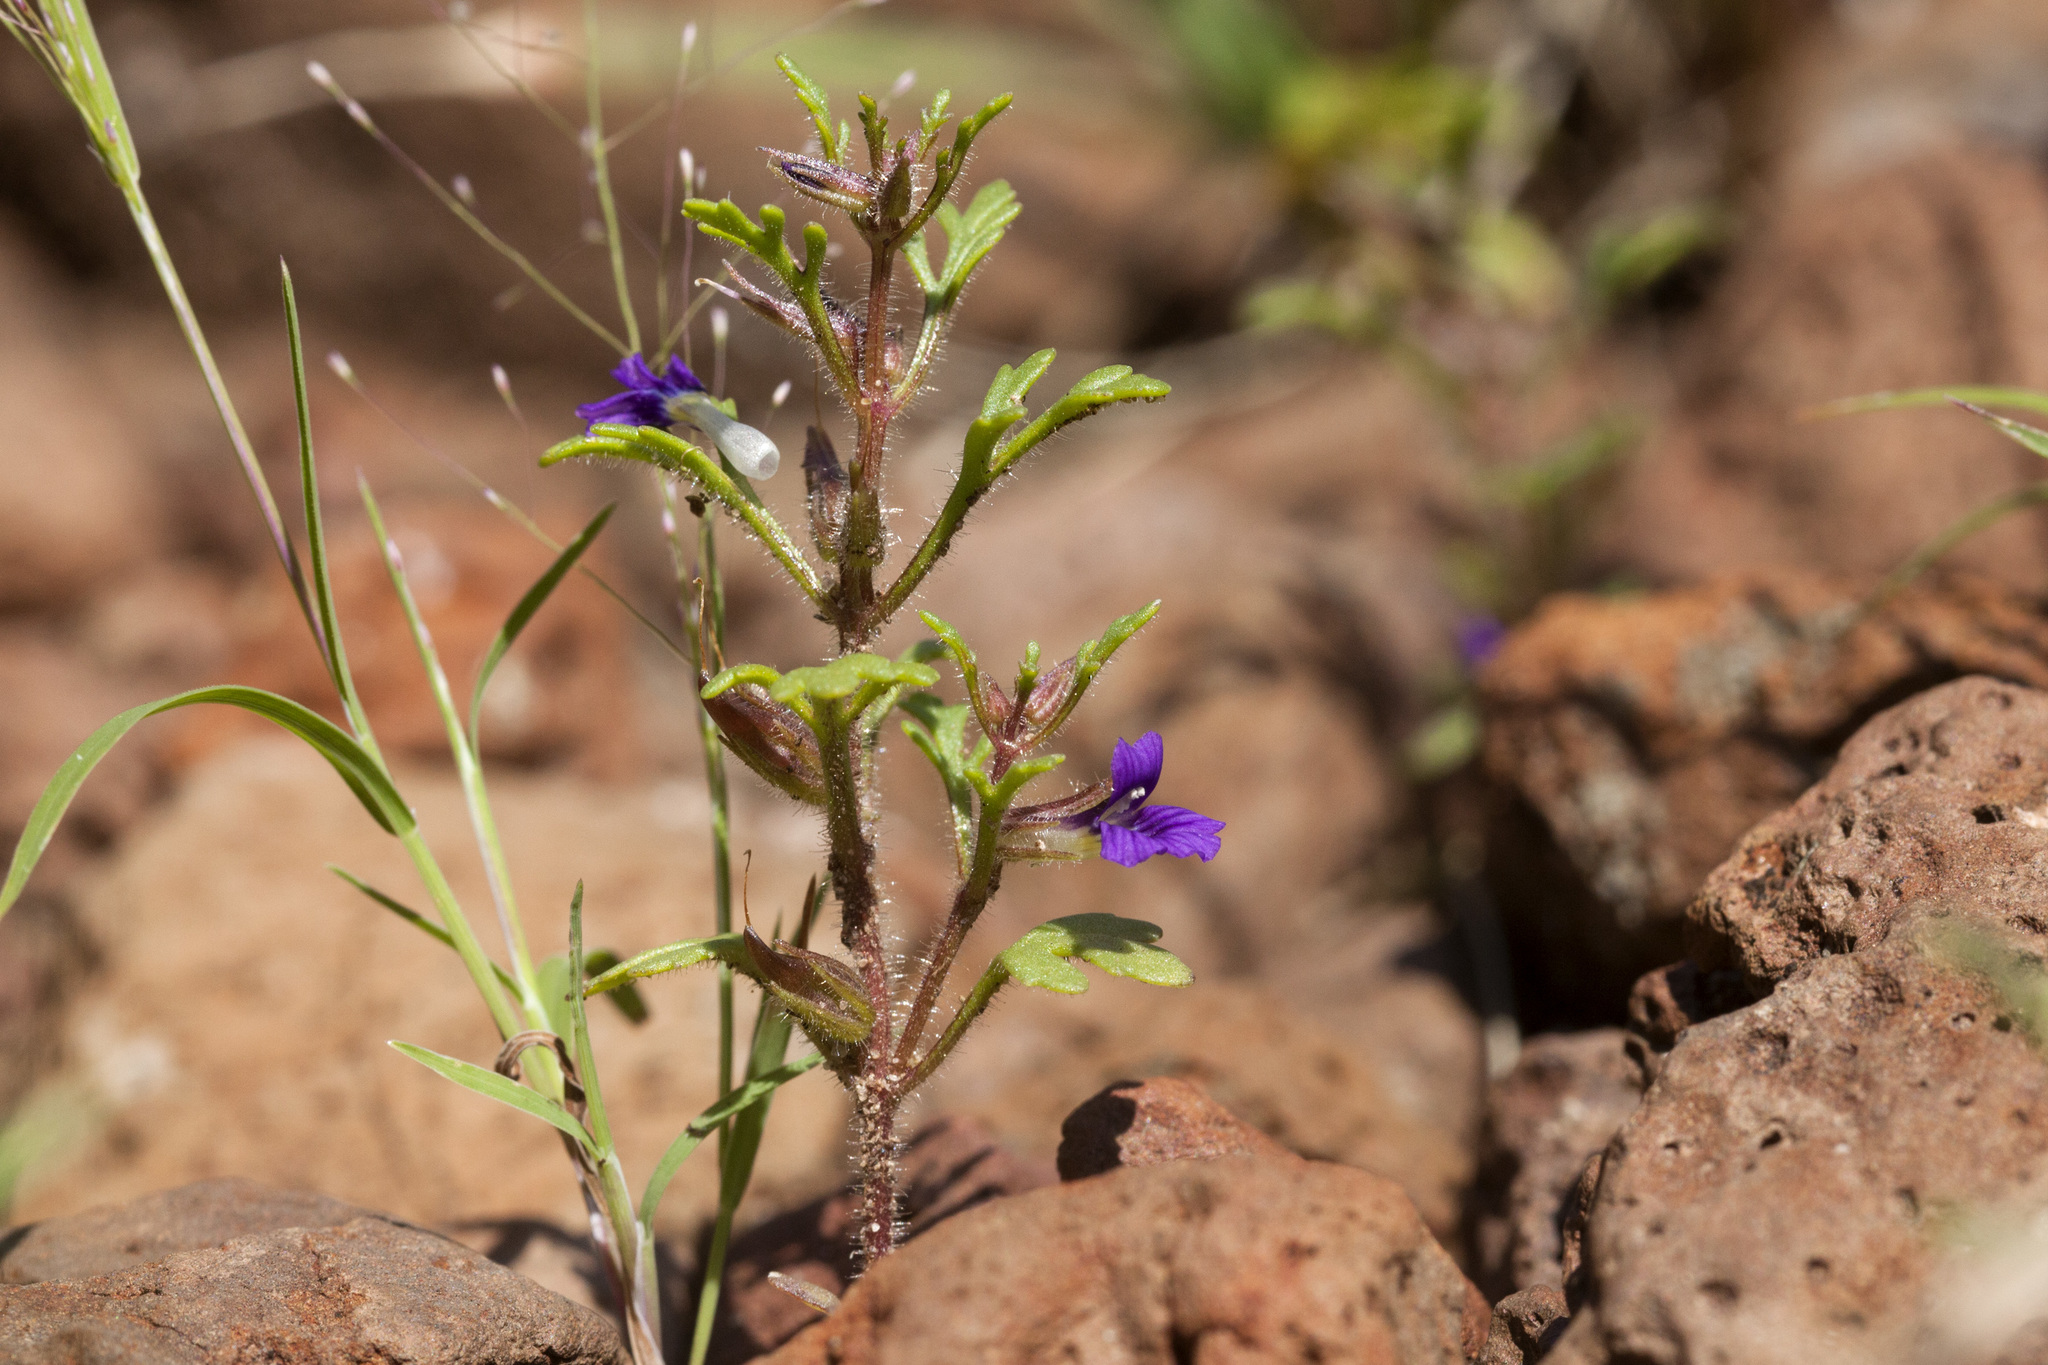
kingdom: Plantae
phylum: Tracheophyta
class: Magnoliopsida
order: Lamiales
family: Plantaginaceae
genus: Schistophragma
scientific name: Schistophragma intermedium
